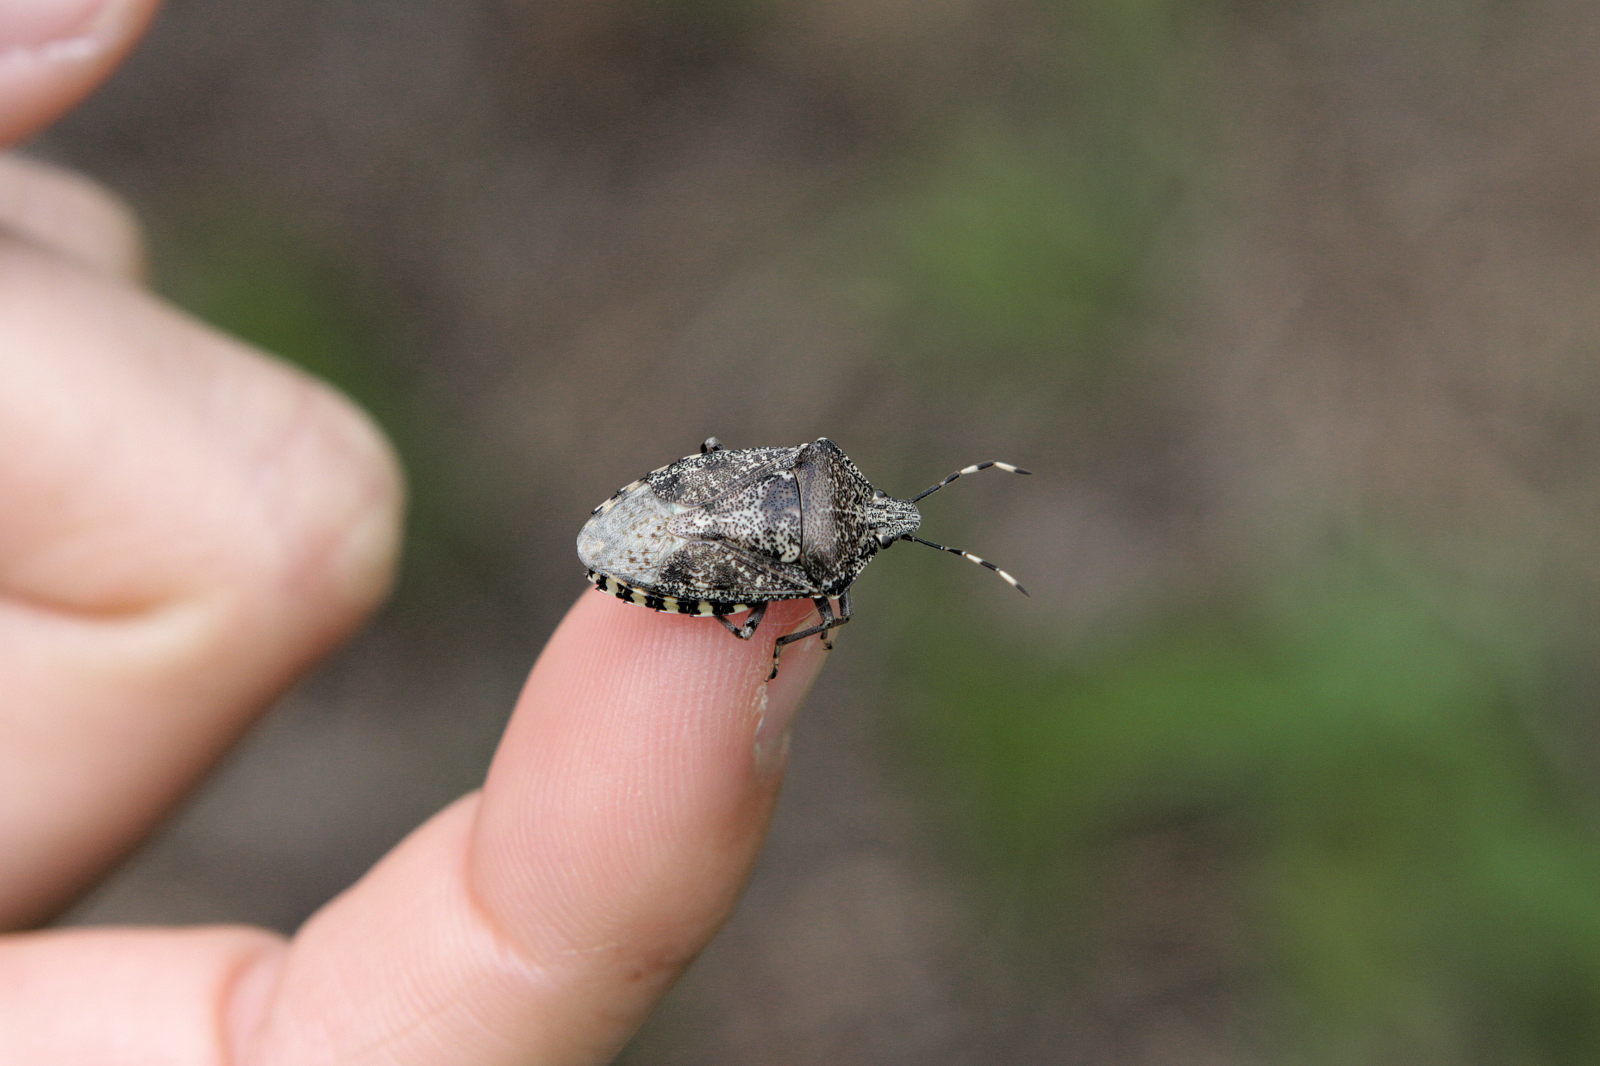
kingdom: Animalia
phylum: Arthropoda
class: Insecta
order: Hemiptera
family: Pentatomidae
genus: Rhaphigaster
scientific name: Rhaphigaster nebulosa
